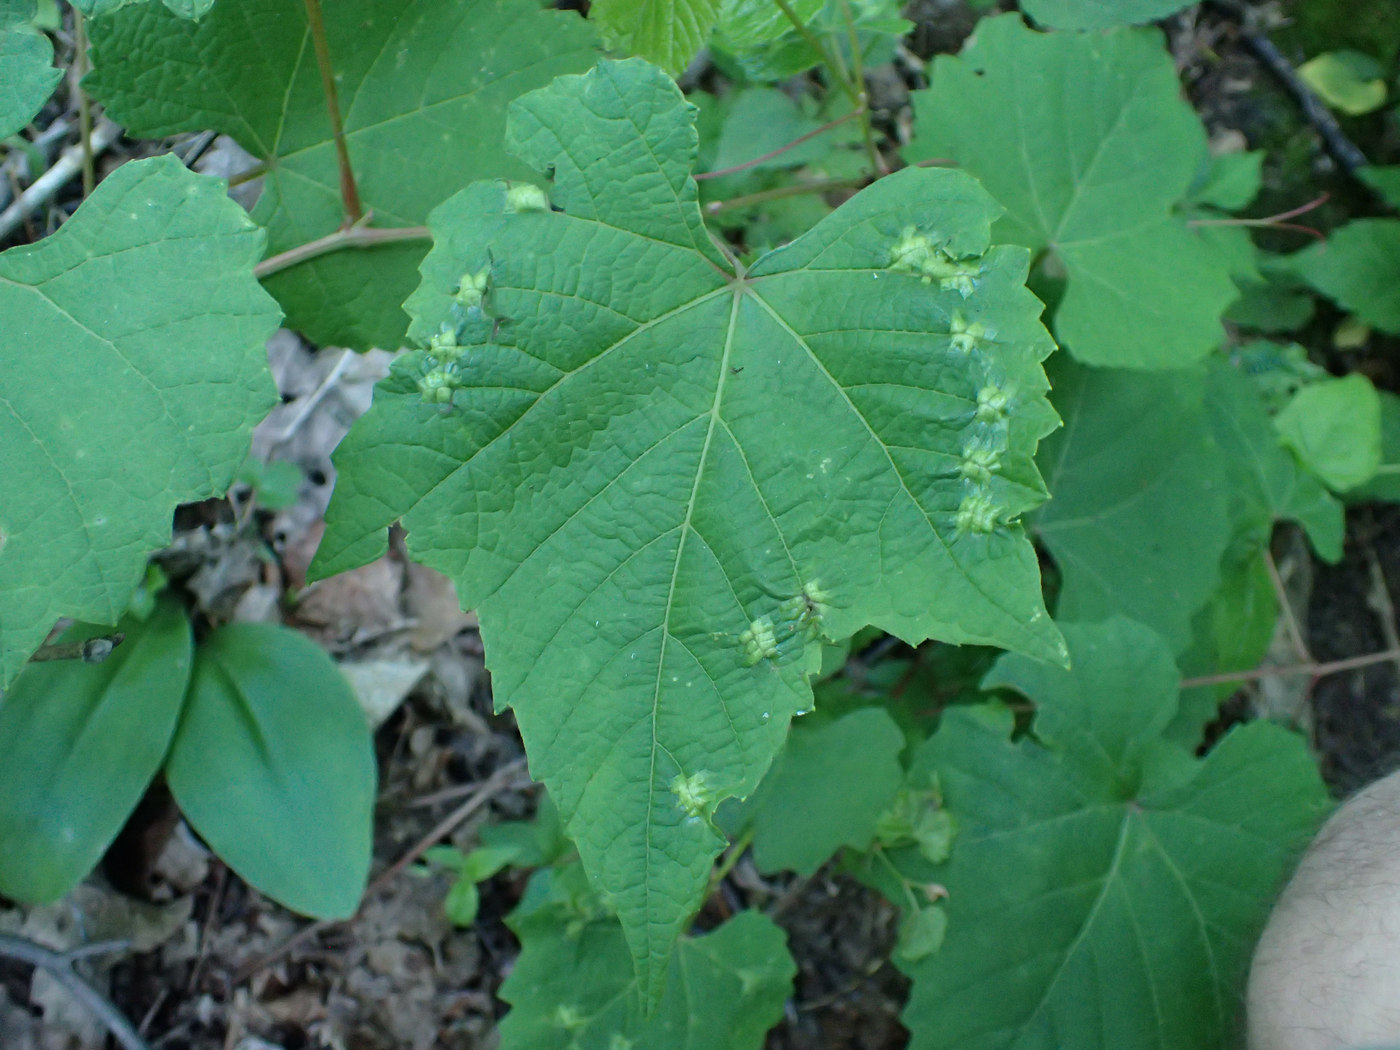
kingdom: Animalia
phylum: Arthropoda
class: Insecta
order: Lepidoptera
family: Heliozelidae
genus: Heliozela
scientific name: Heliozela aesella
